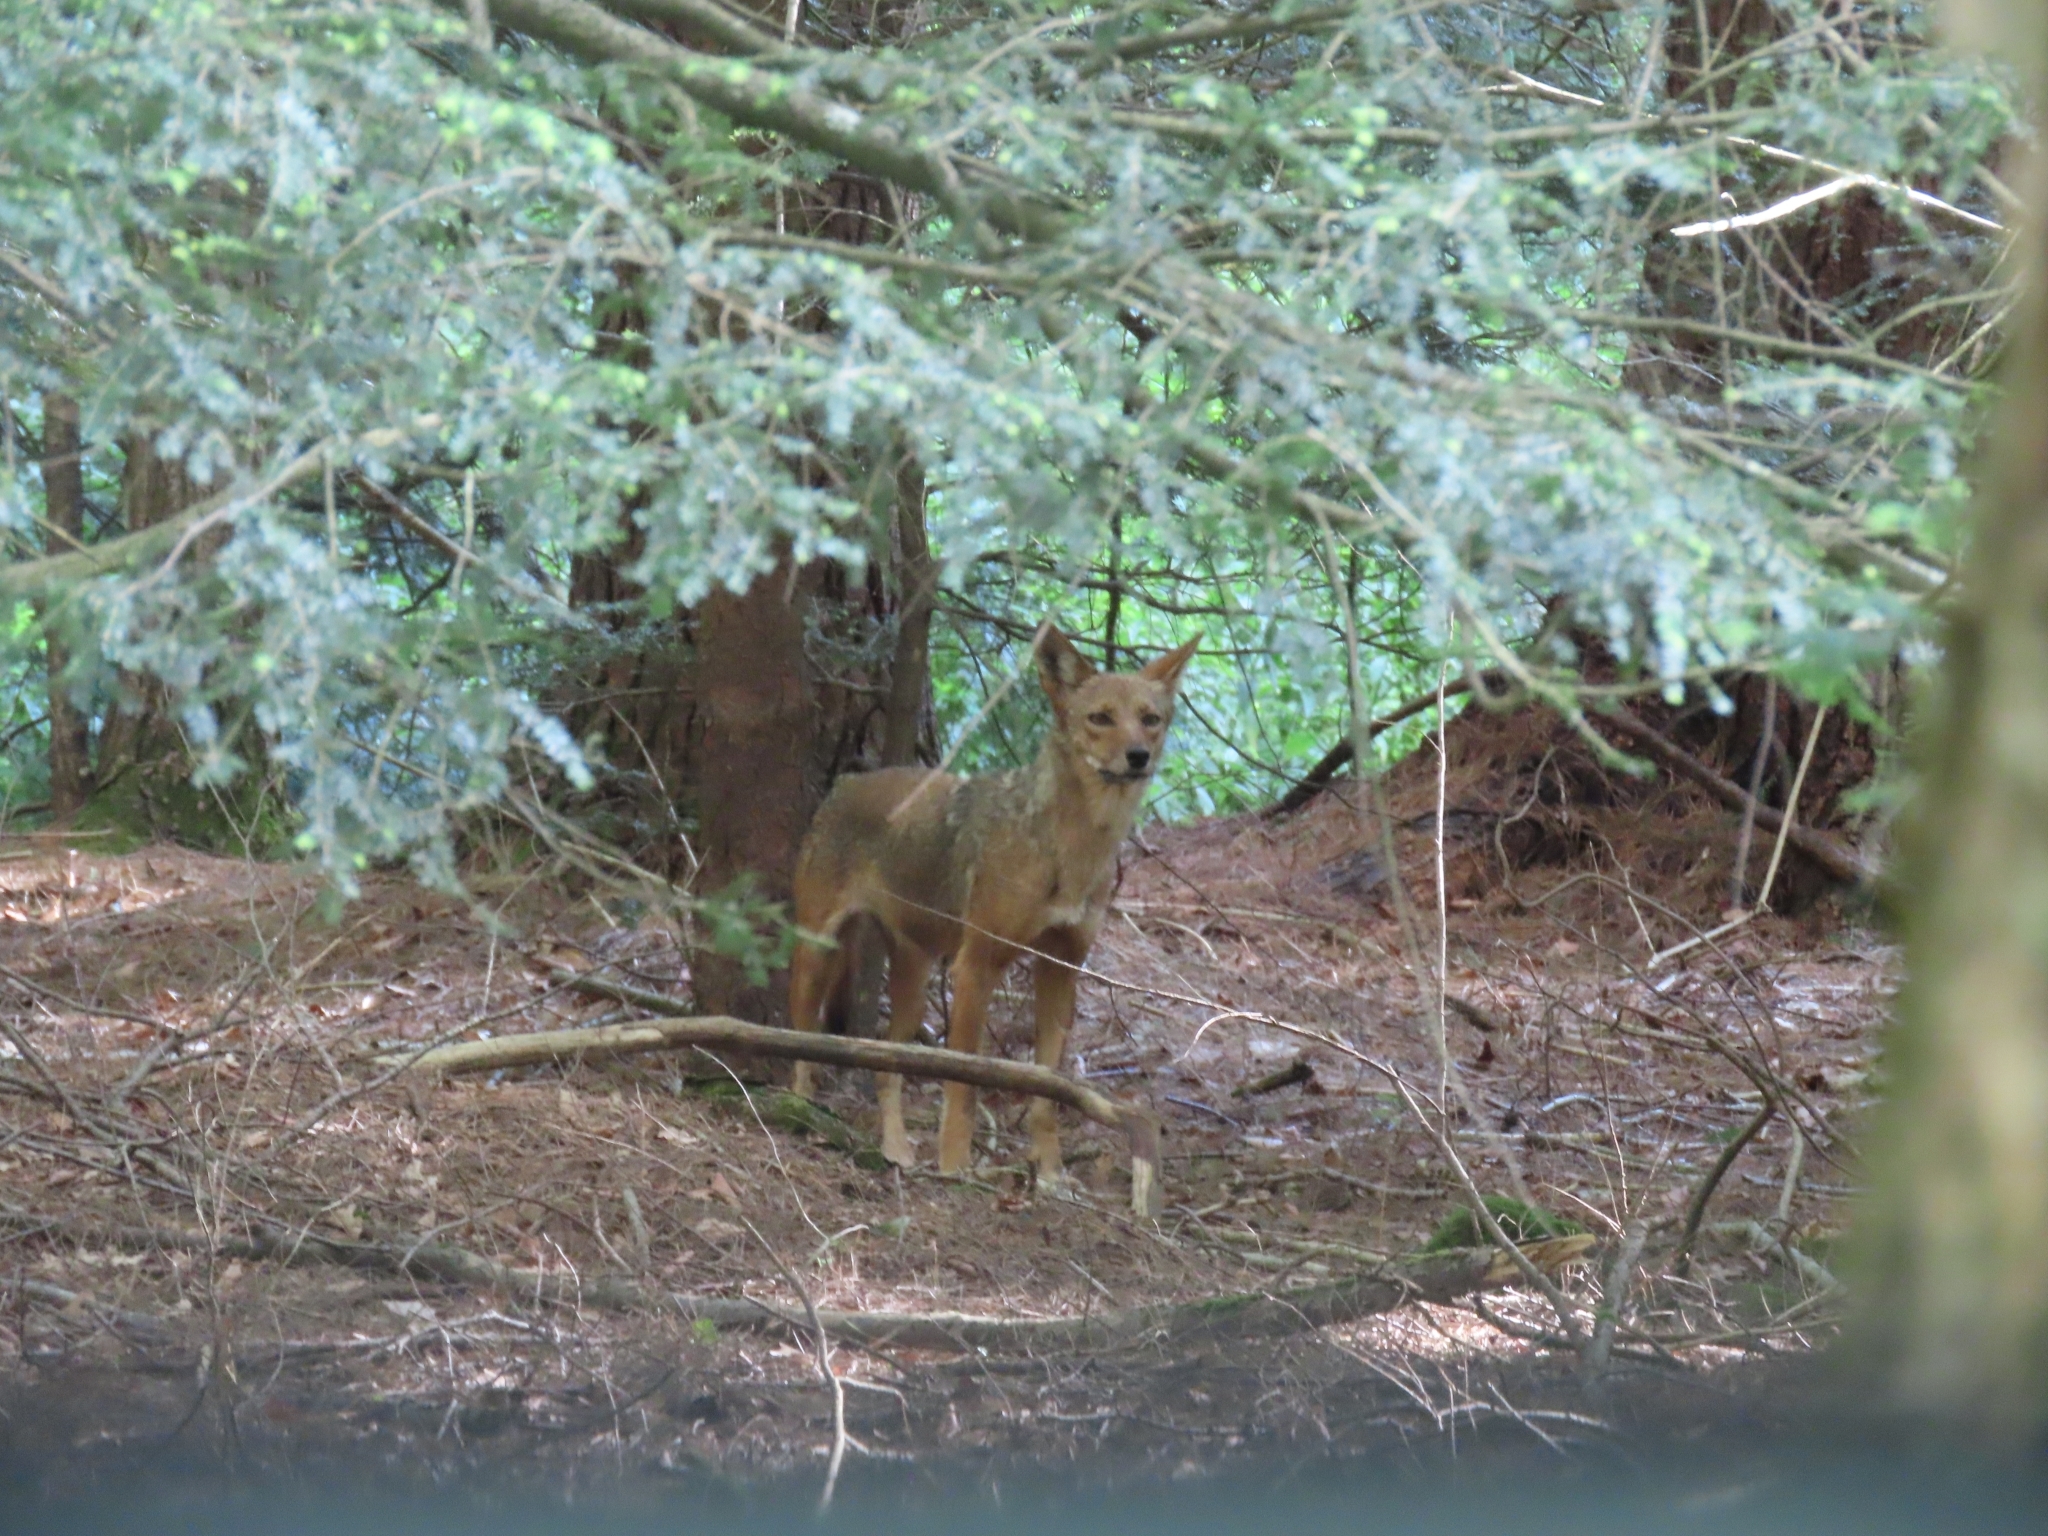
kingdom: Animalia
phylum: Chordata
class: Mammalia
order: Carnivora
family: Canidae
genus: Canis
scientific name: Canis latrans
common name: Coyote
